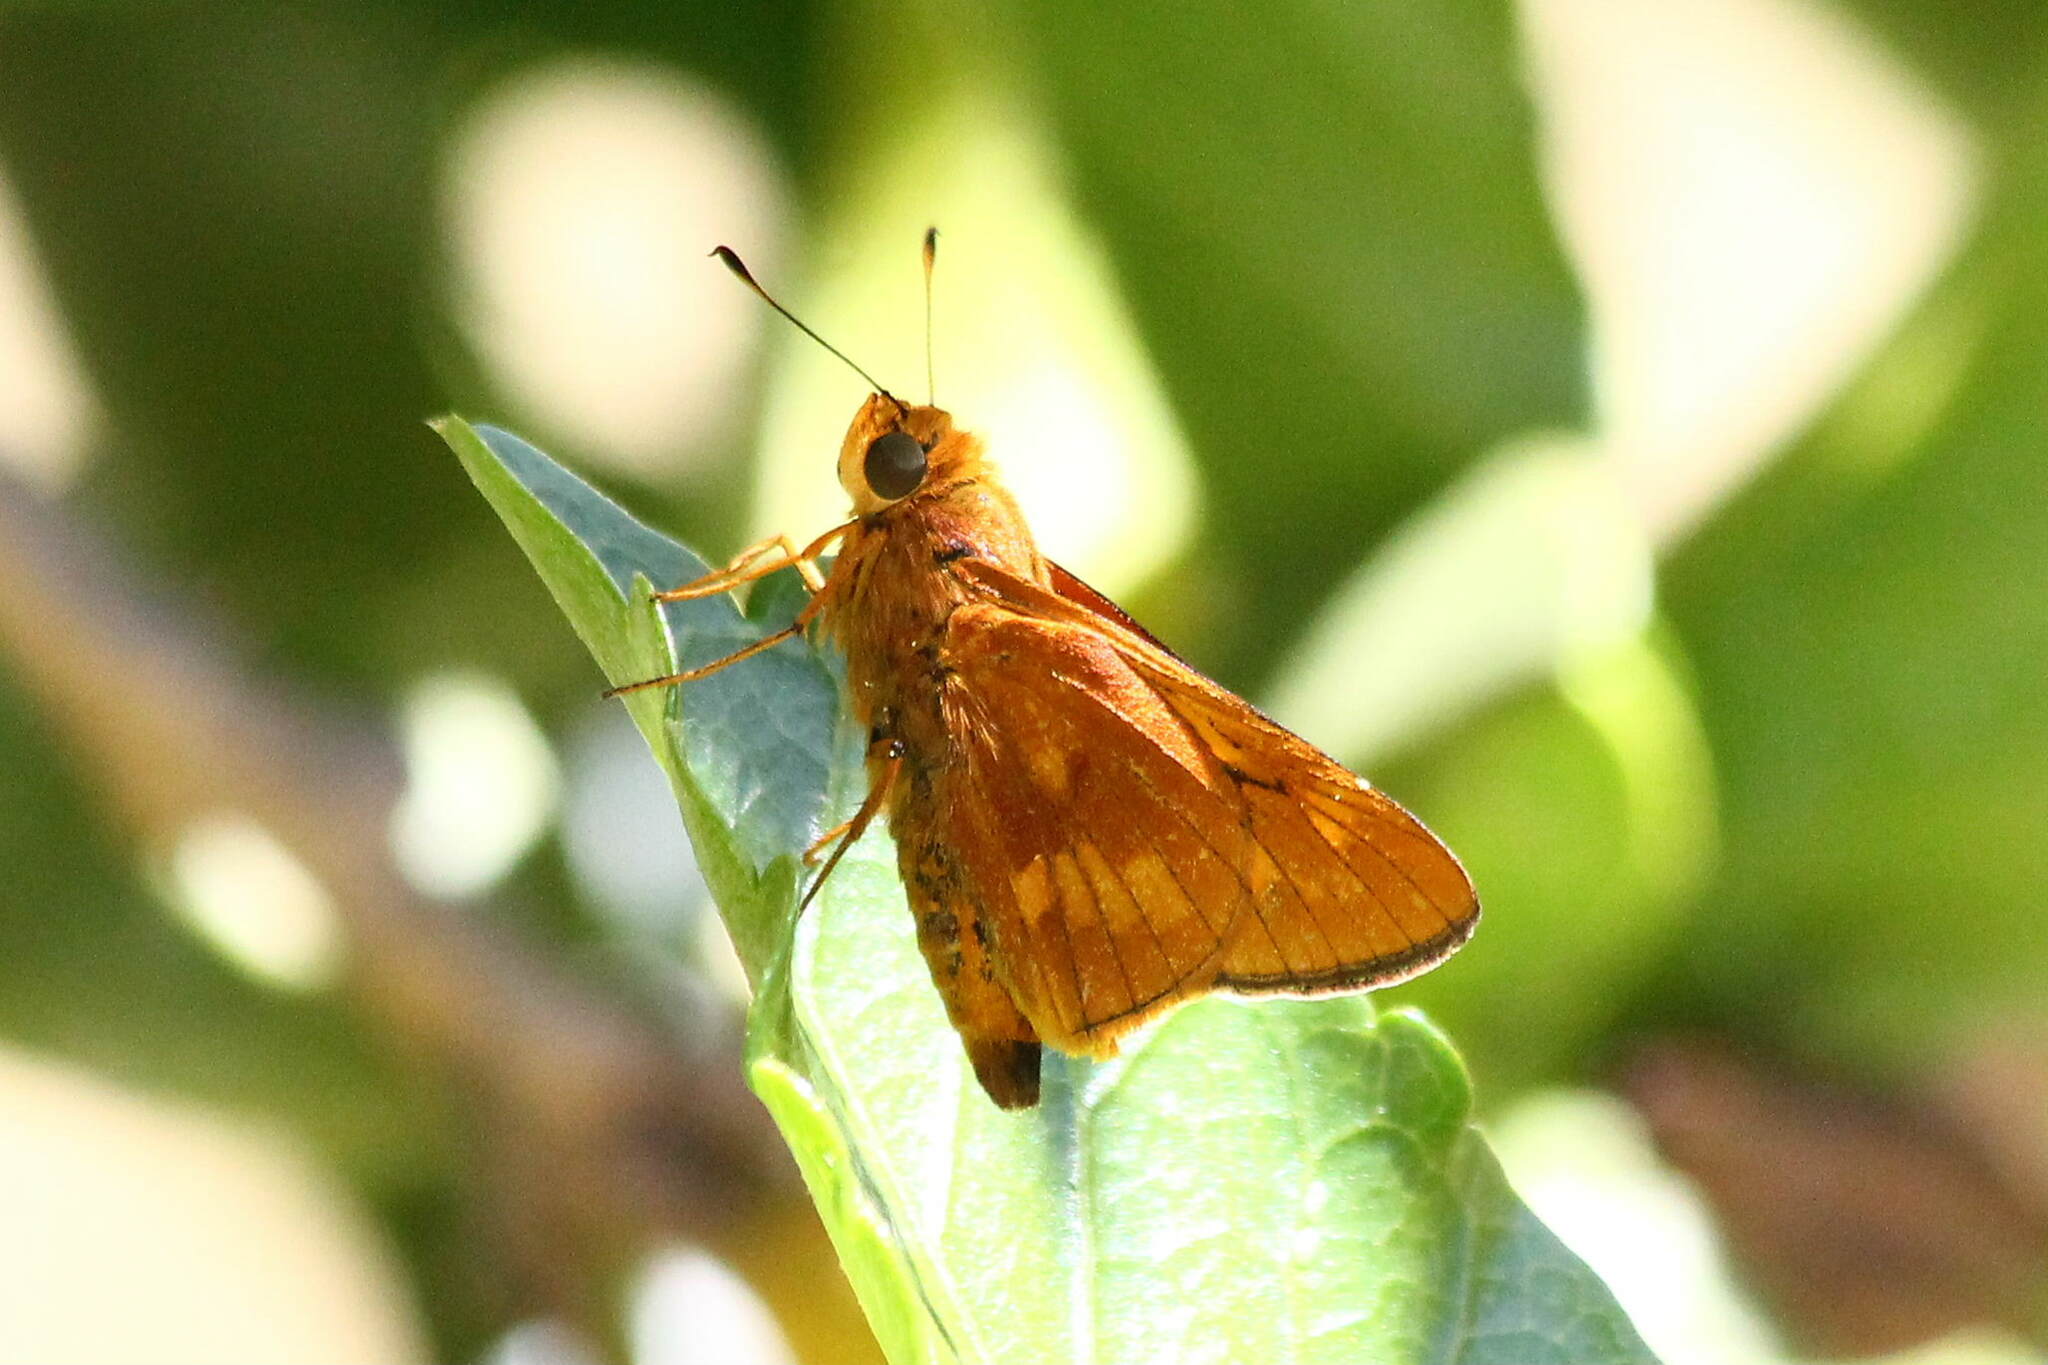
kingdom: Animalia
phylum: Arthropoda
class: Insecta
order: Lepidoptera
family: Hesperiidae
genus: Cephrenes
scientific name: Cephrenes augiades
